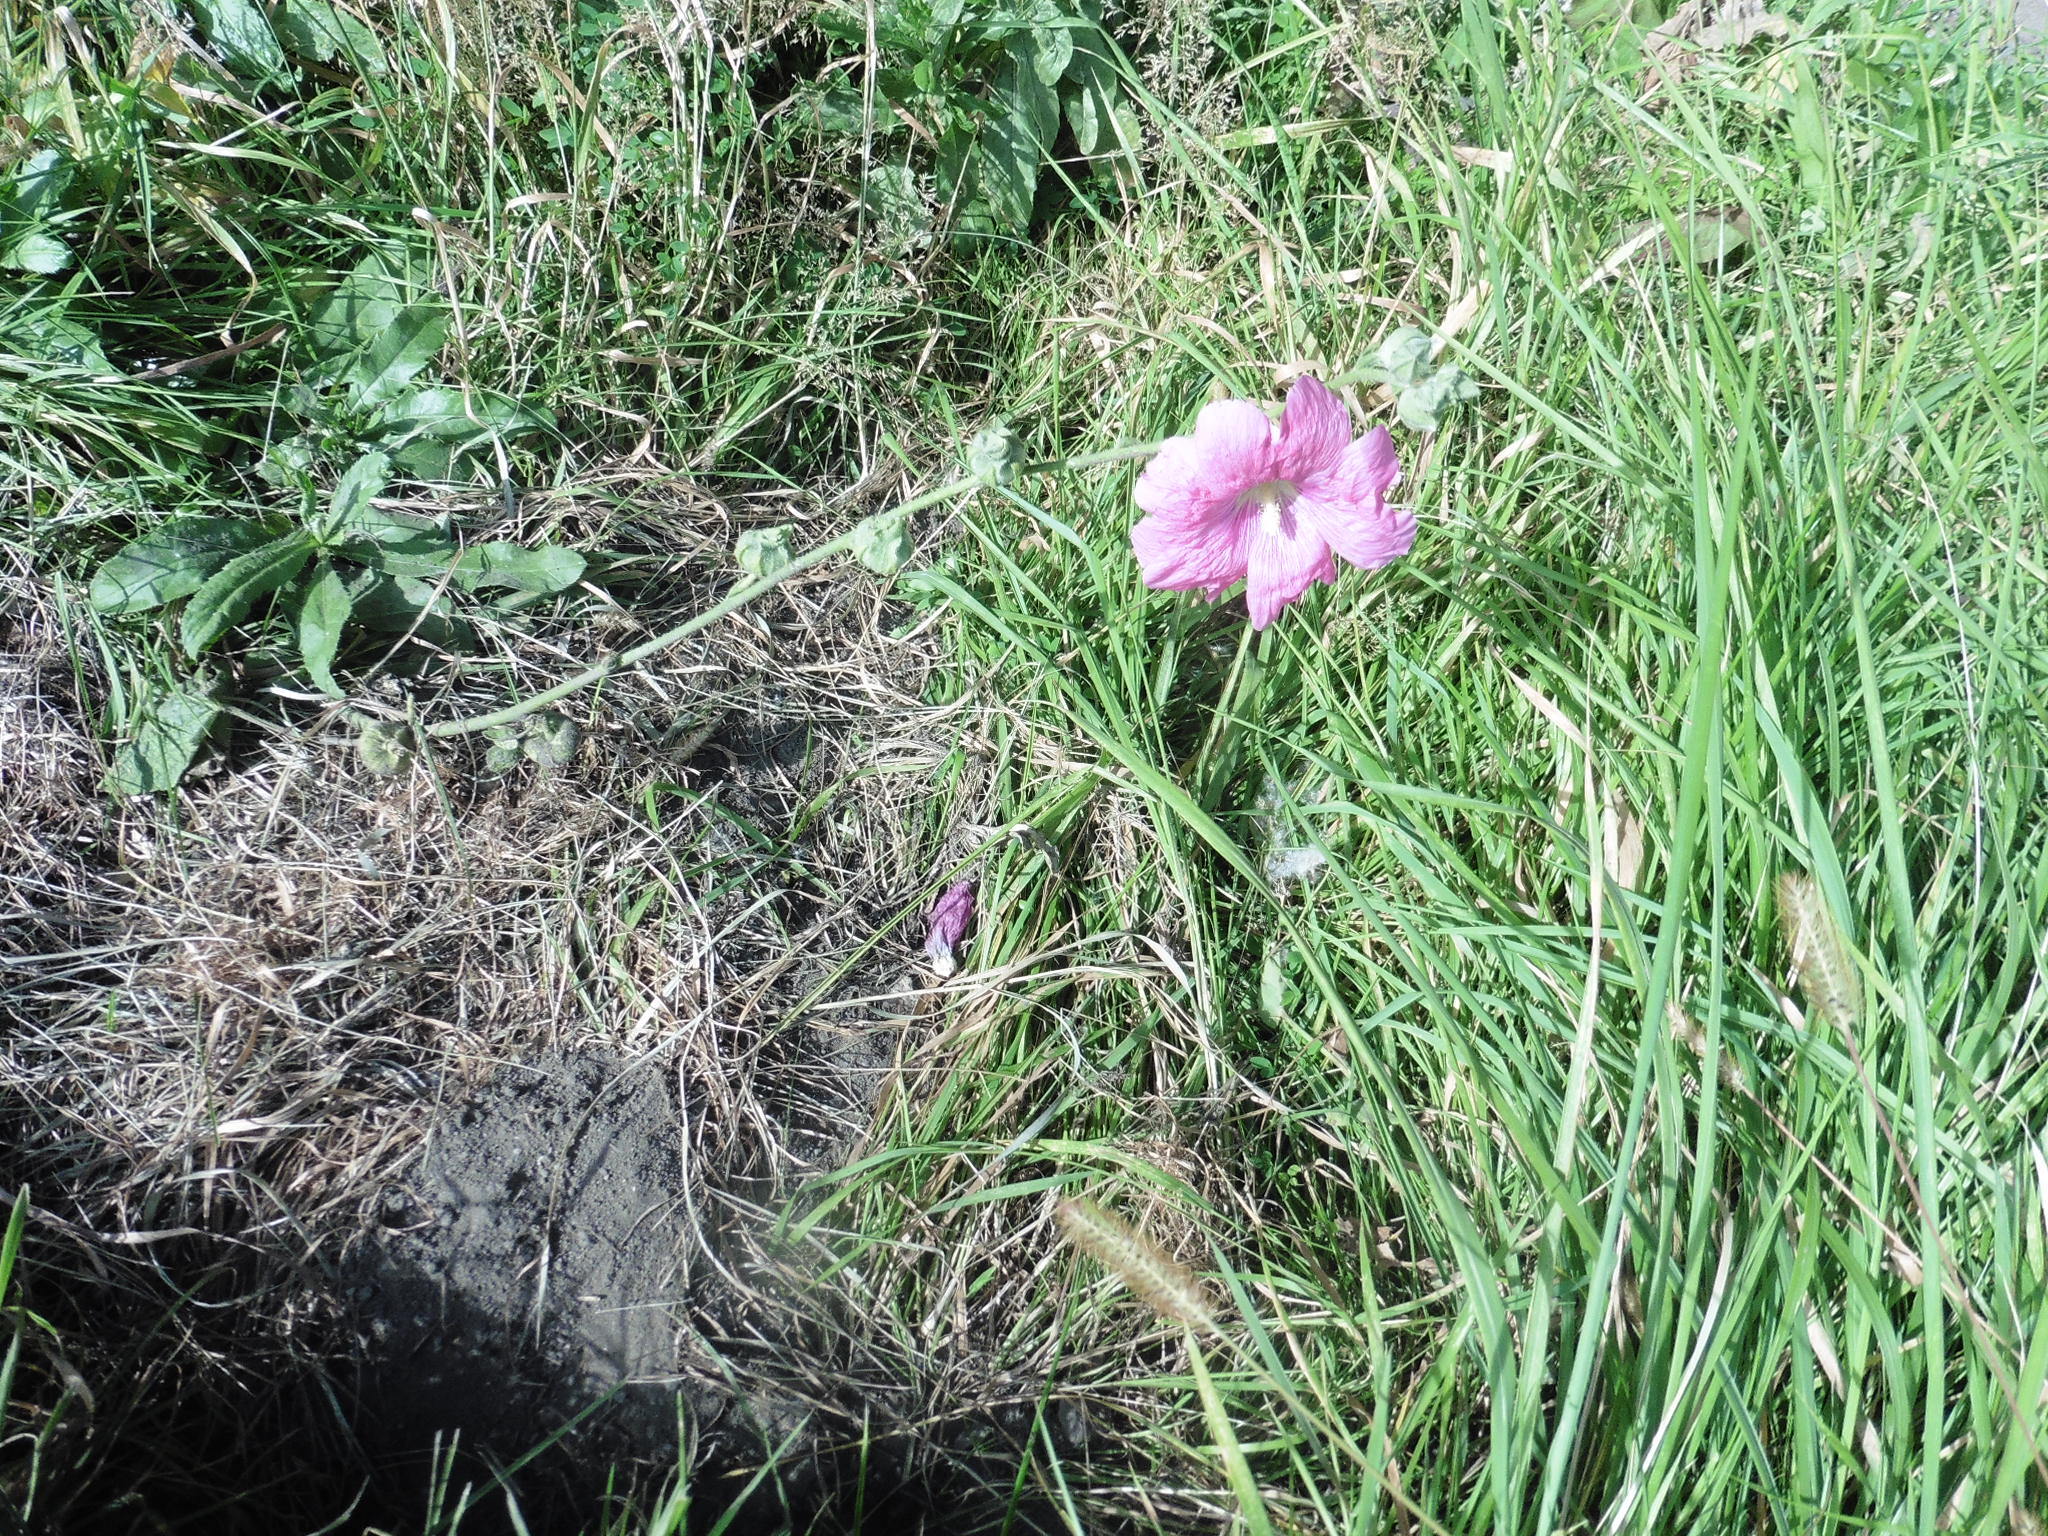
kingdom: Plantae
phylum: Tracheophyta
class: Magnoliopsida
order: Malvales
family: Malvaceae
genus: Alcea
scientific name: Alcea rosea
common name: Hollyhock
